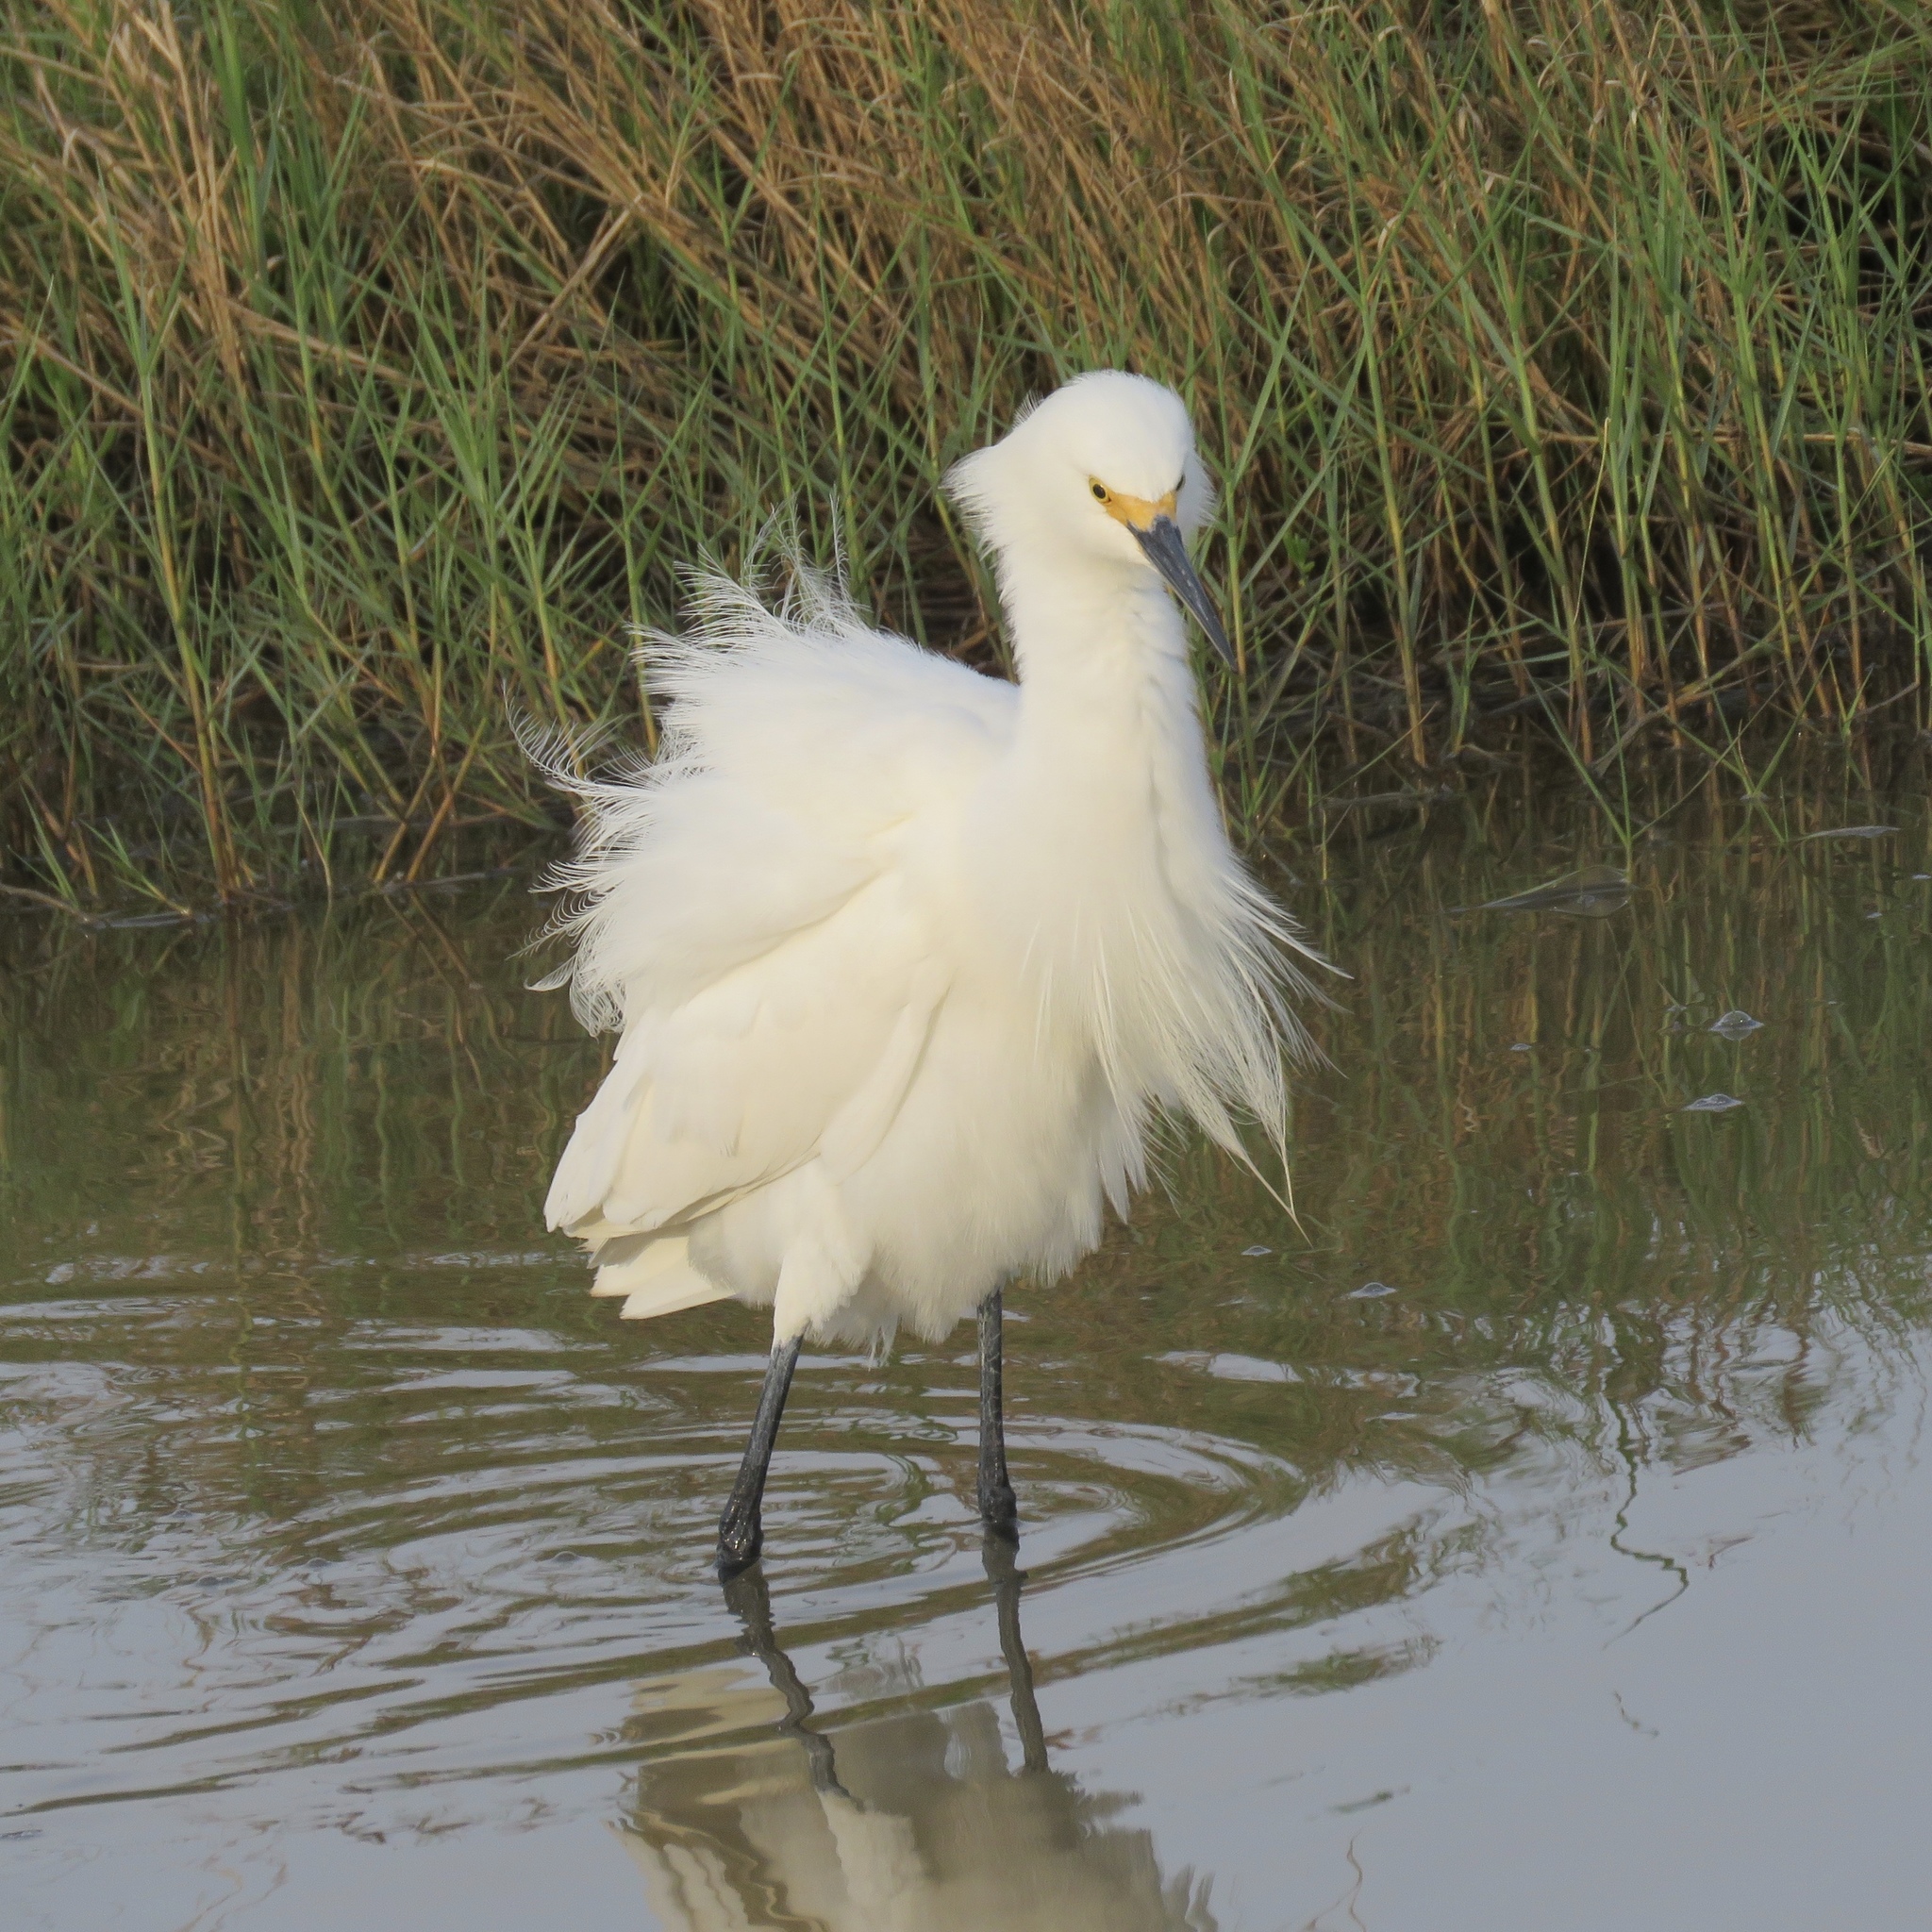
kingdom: Animalia
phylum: Chordata
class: Aves
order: Pelecaniformes
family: Ardeidae
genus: Egretta
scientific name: Egretta thula
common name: Snowy egret
